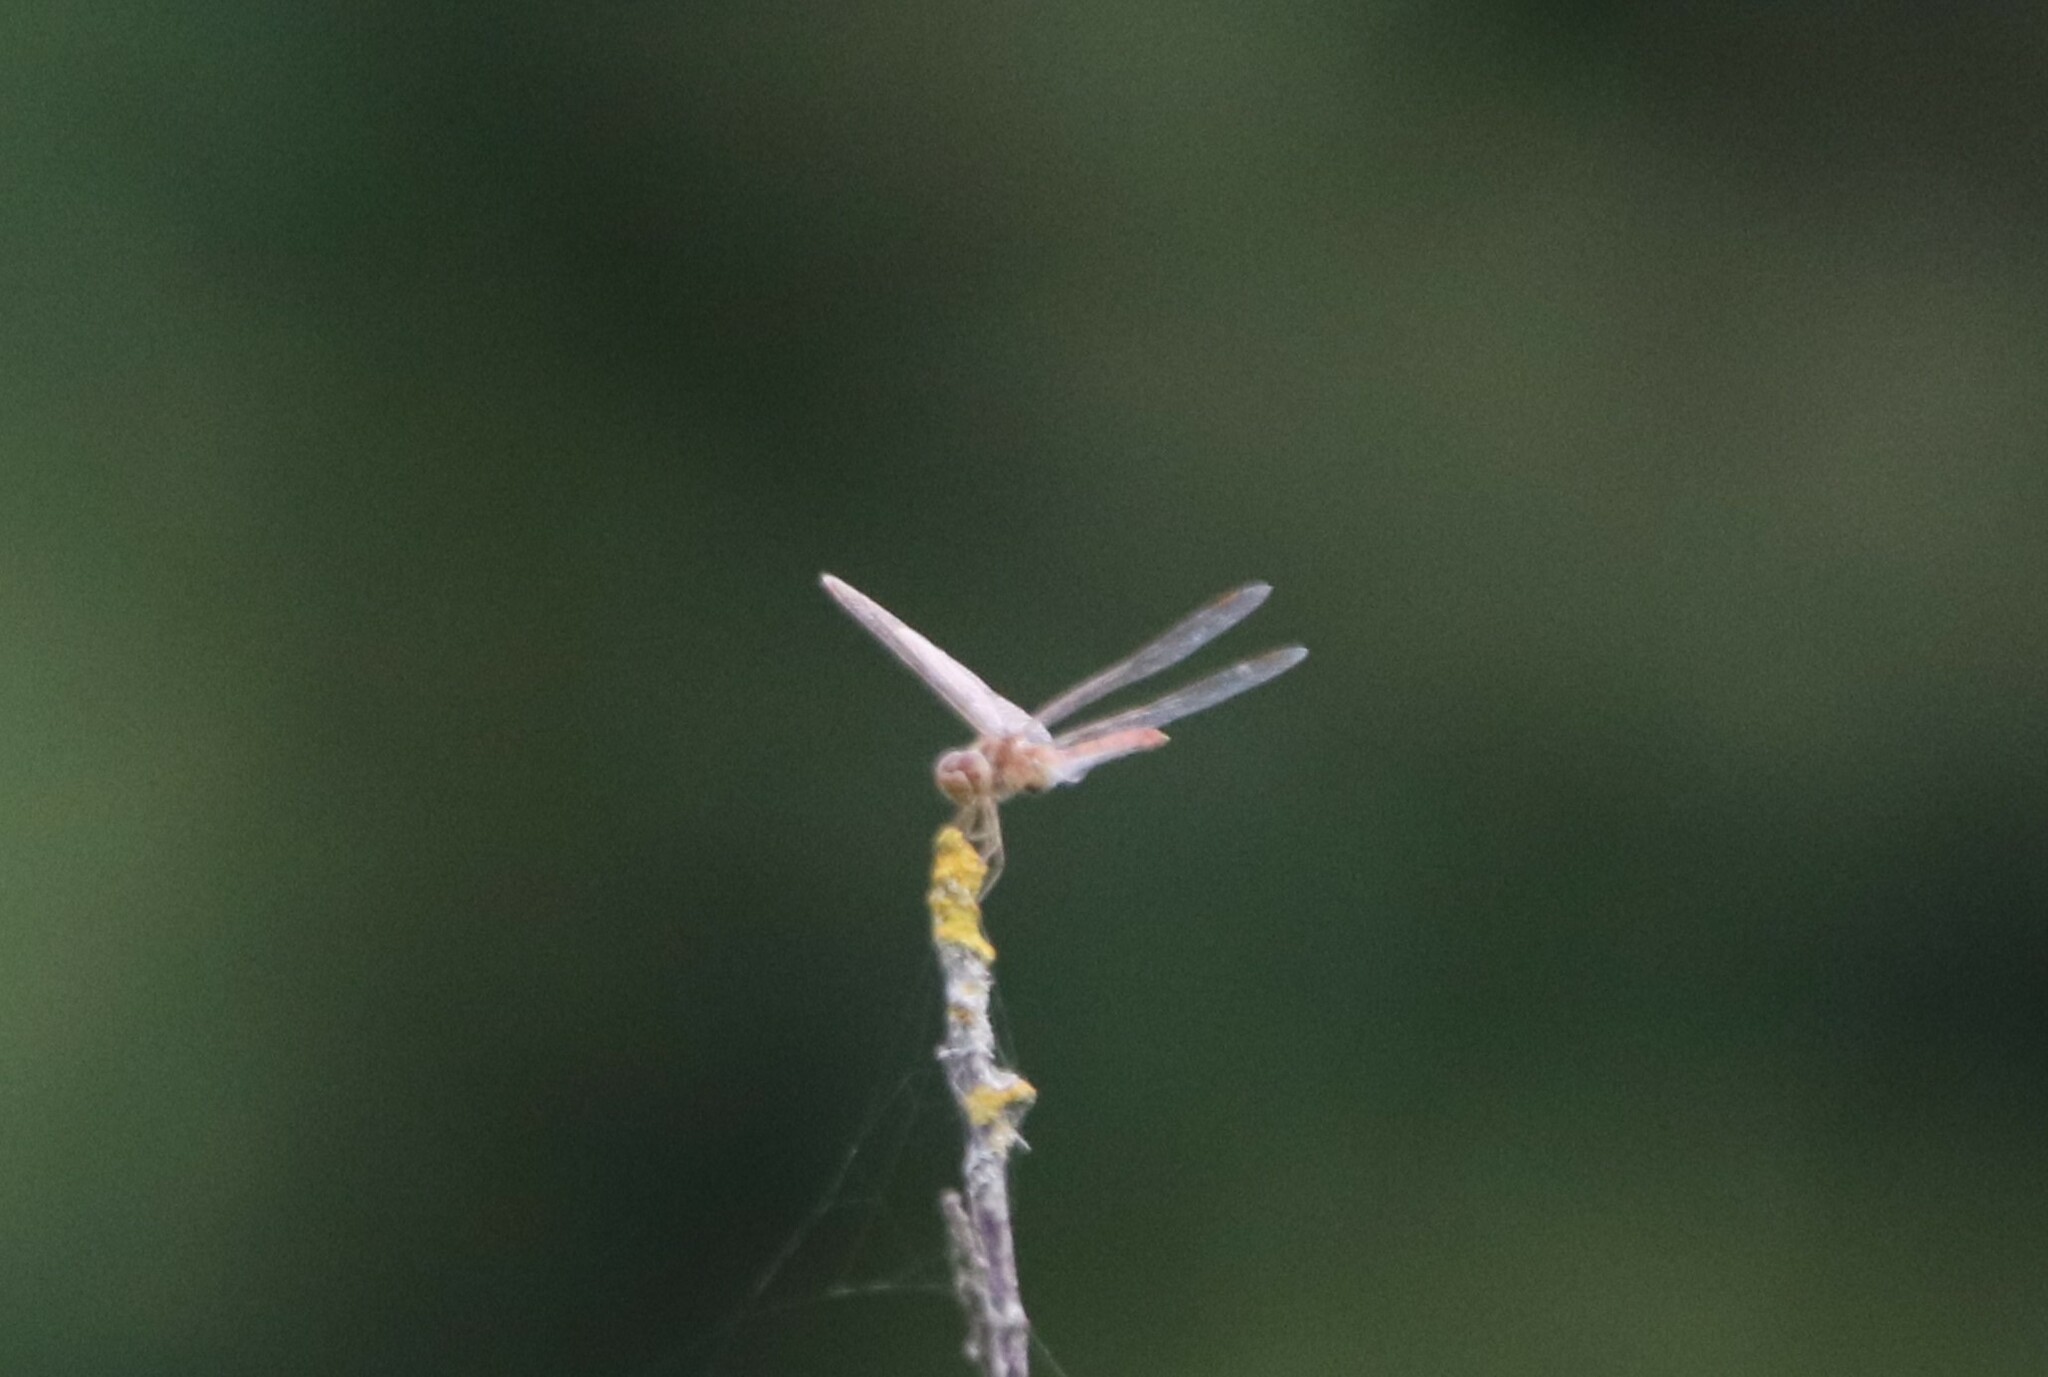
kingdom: Animalia
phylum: Arthropoda
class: Insecta
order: Odonata
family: Libellulidae
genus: Sympetrum
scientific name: Sympetrum meridionale
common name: Southern darter
